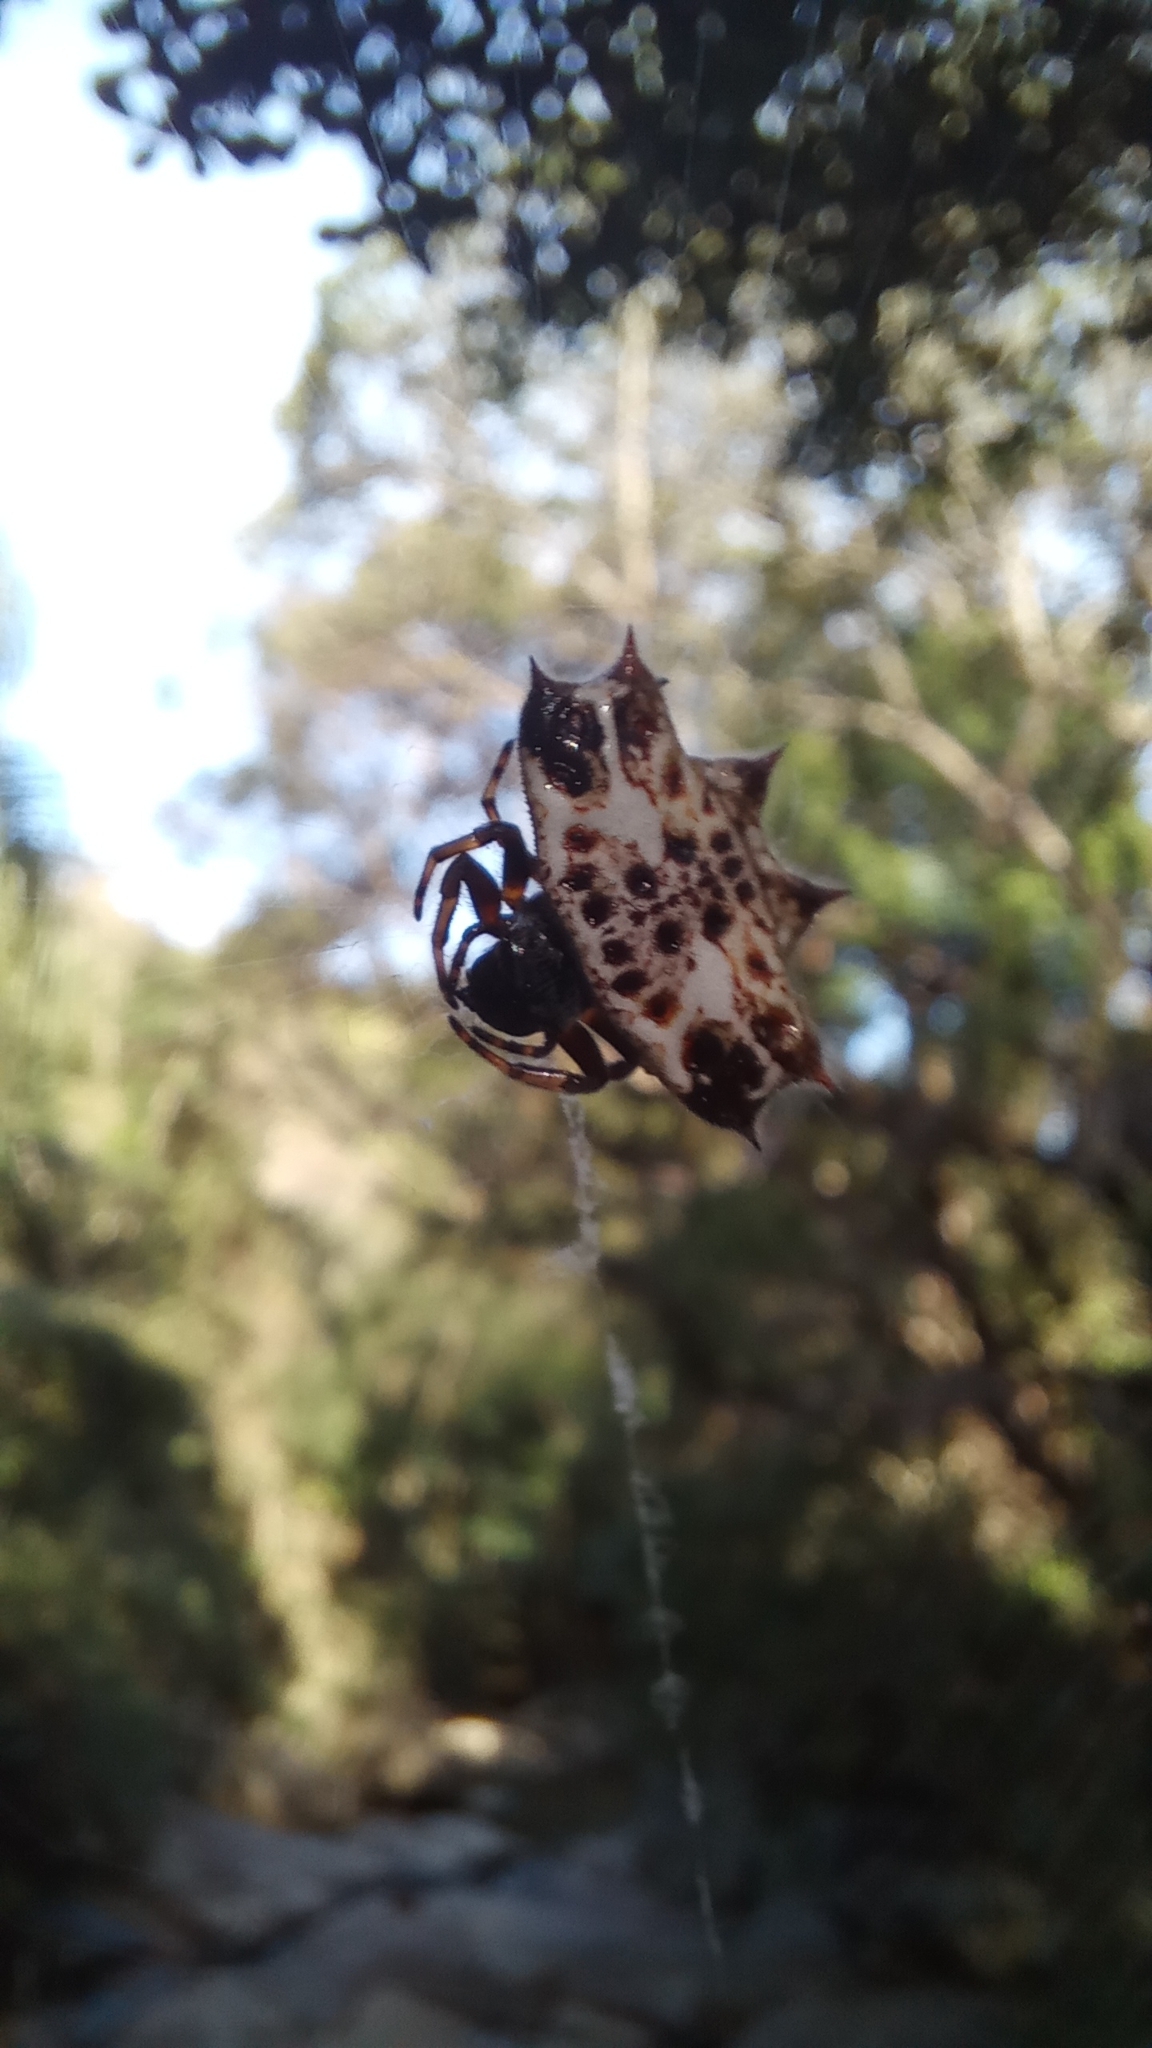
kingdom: Animalia
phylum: Arthropoda
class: Arachnida
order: Araneae
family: Araneidae
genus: Gasteracantha
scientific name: Gasteracantha cancriformis
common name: Orb weavers
